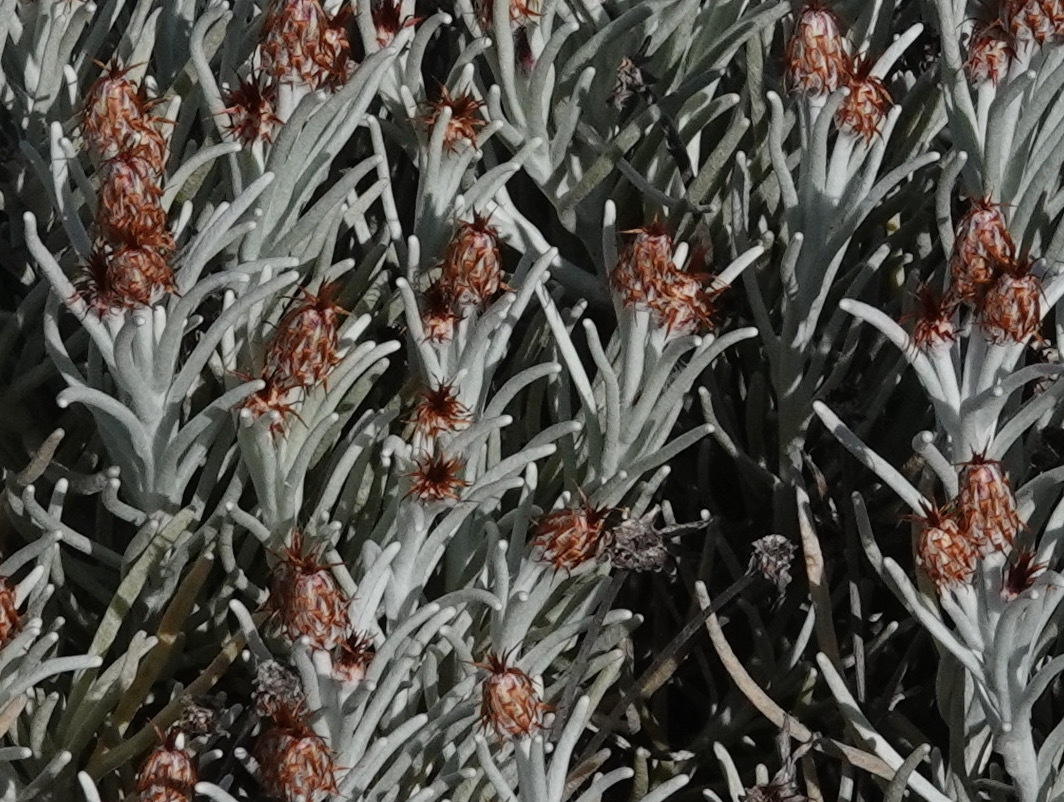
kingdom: Plantae
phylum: Tracheophyta
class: Magnoliopsida
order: Asterales
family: Asteraceae
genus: Syncarpha
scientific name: Syncarpha gnaphaloides
